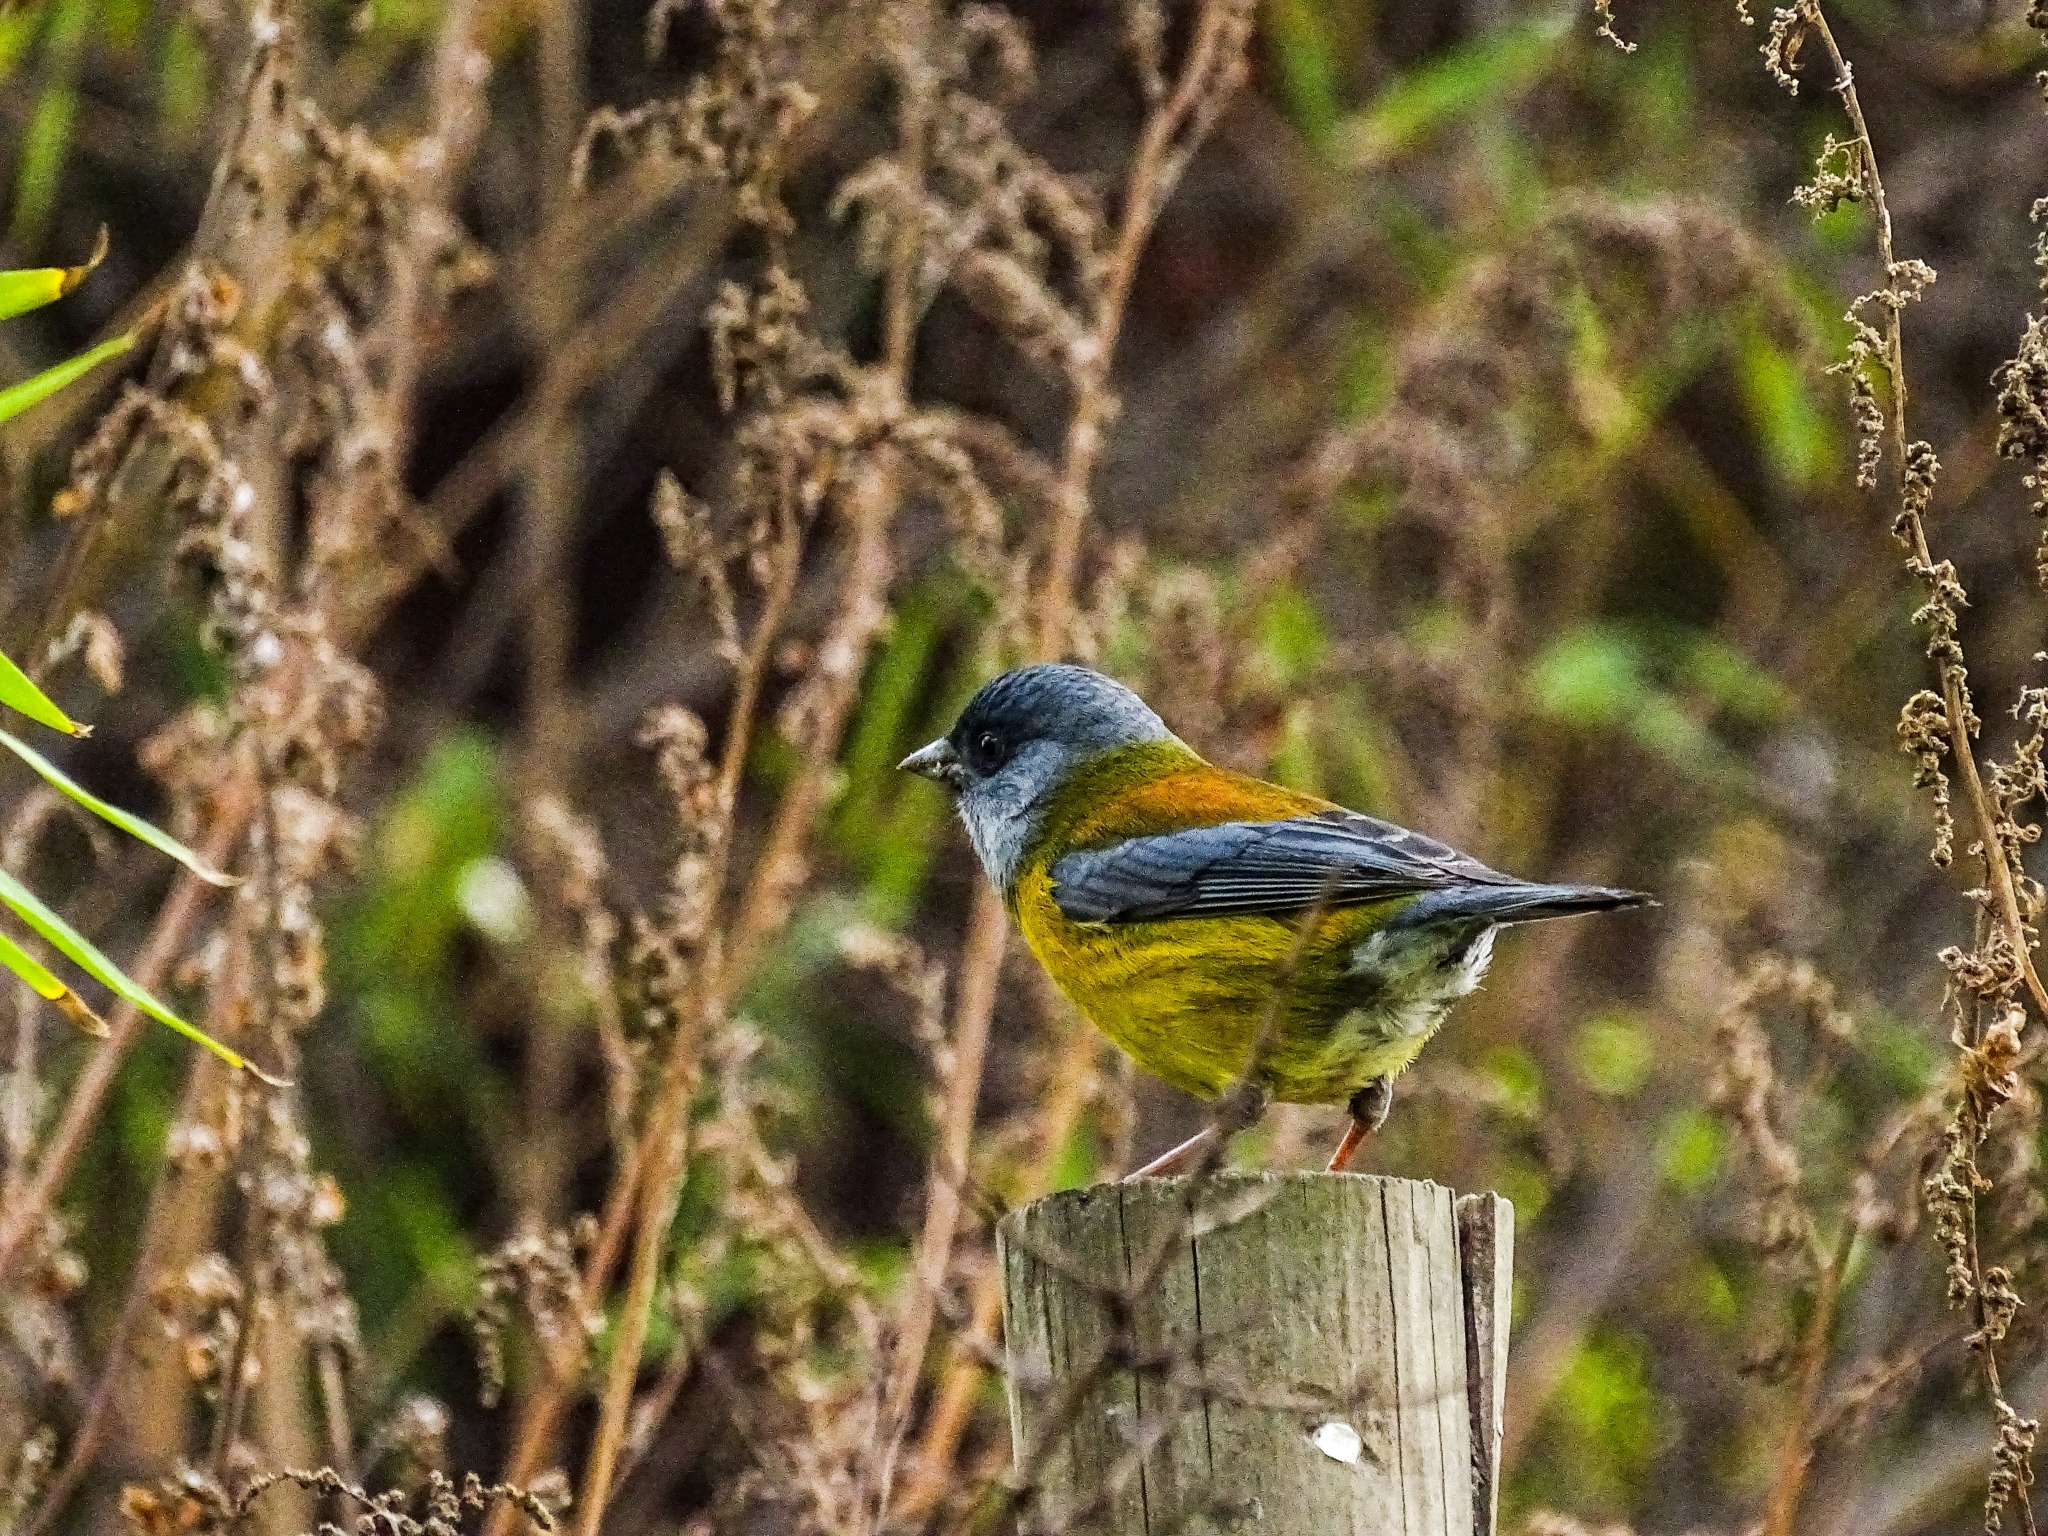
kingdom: Animalia
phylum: Chordata
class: Aves
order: Passeriformes
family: Thraupidae
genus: Phrygilus
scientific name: Phrygilus patagonicus
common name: Patagonian sierra finch
